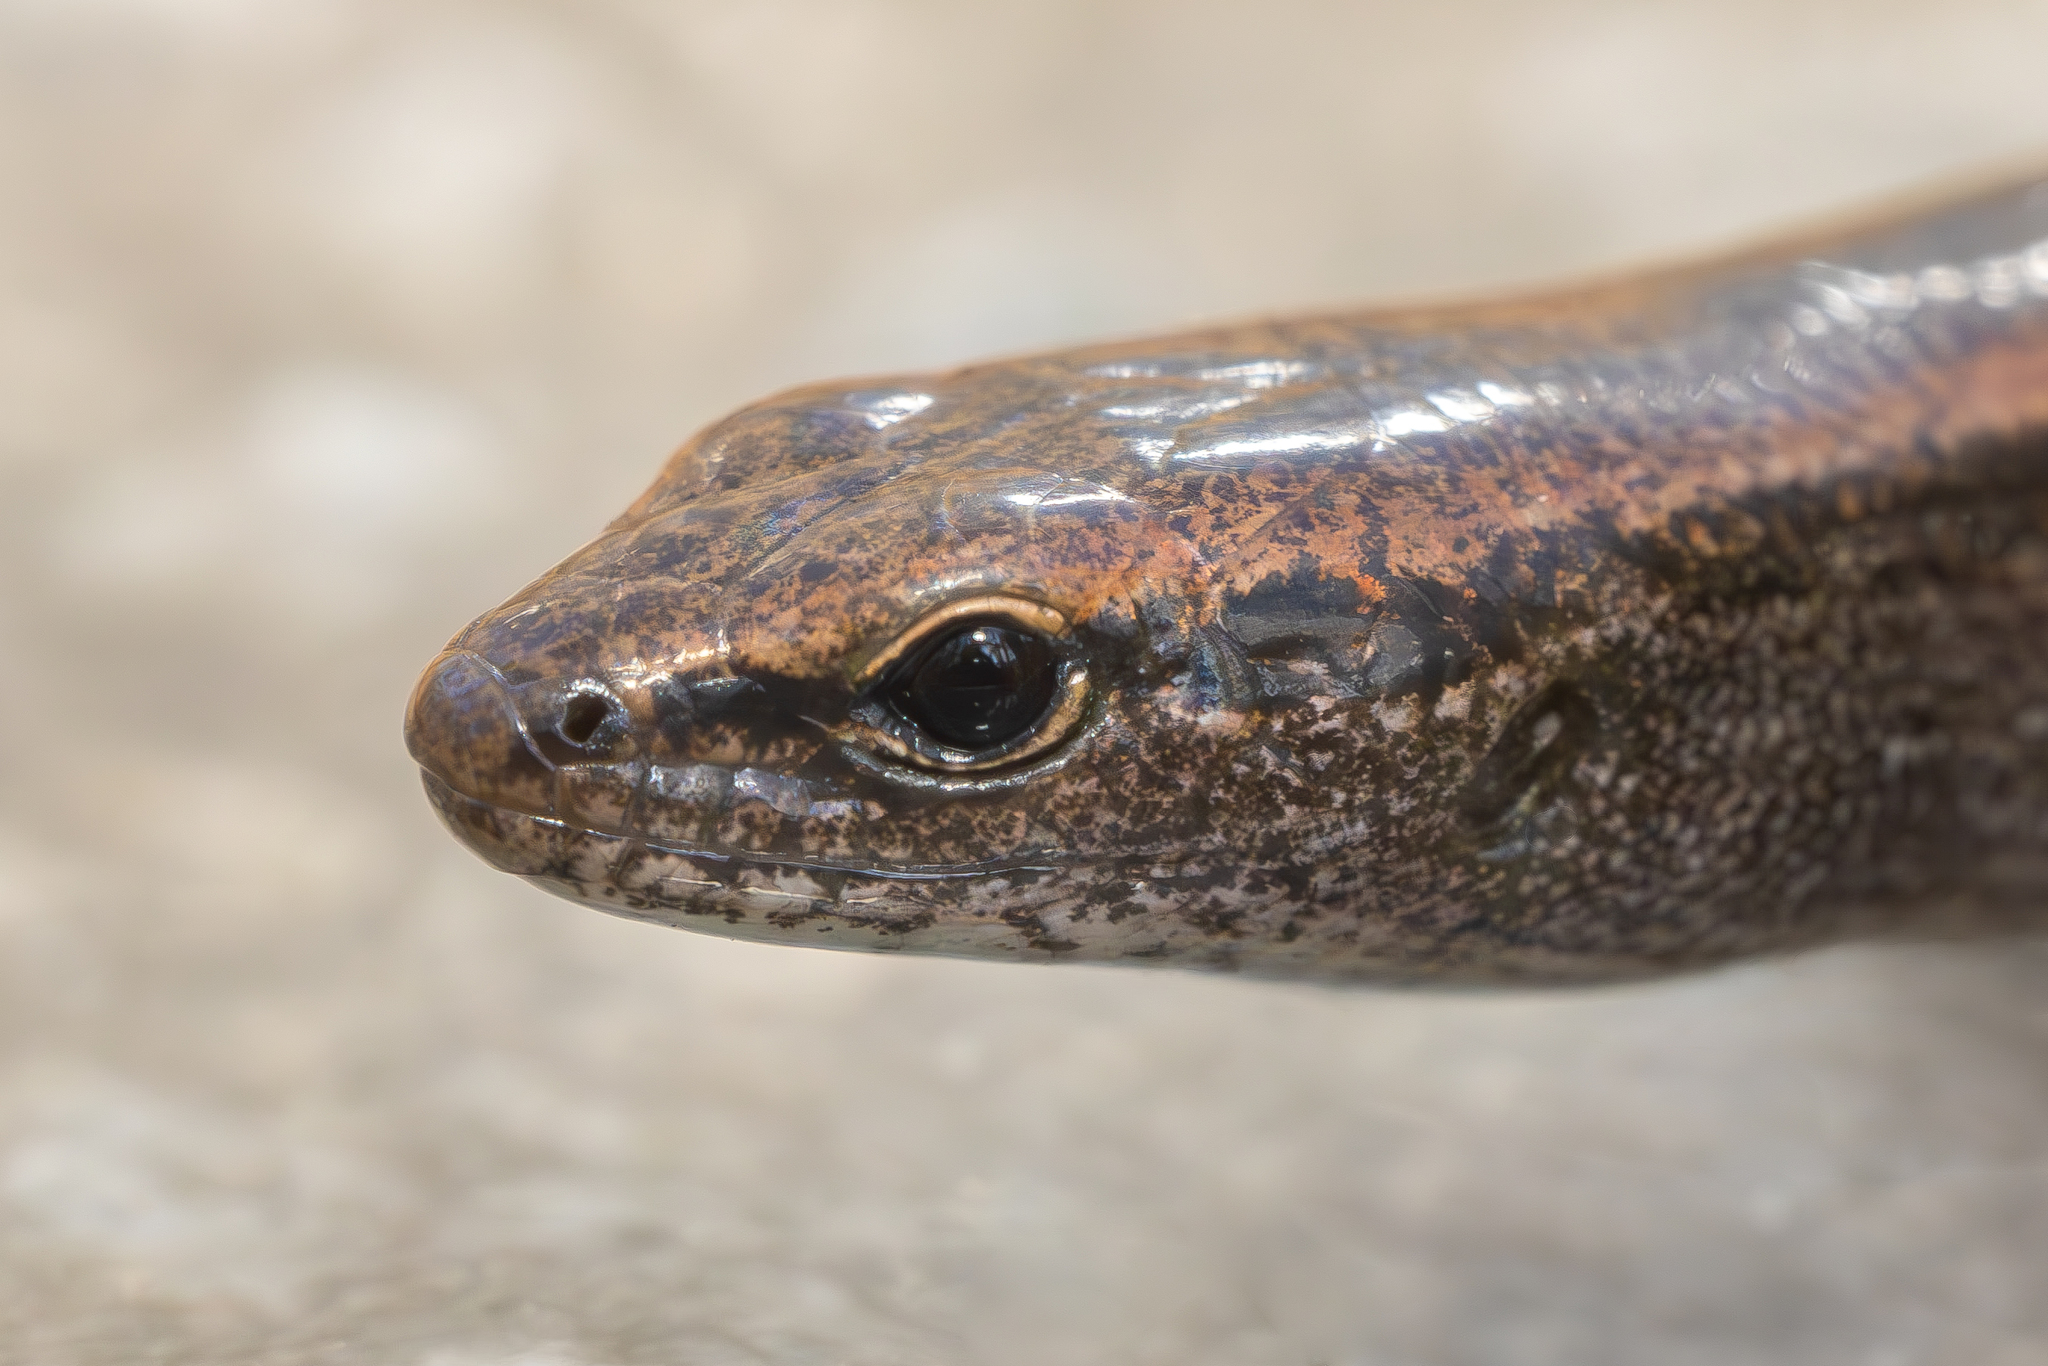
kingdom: Animalia
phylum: Chordata
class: Squamata
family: Scincidae
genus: Scincella
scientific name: Scincella lateralis
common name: Ground skink
